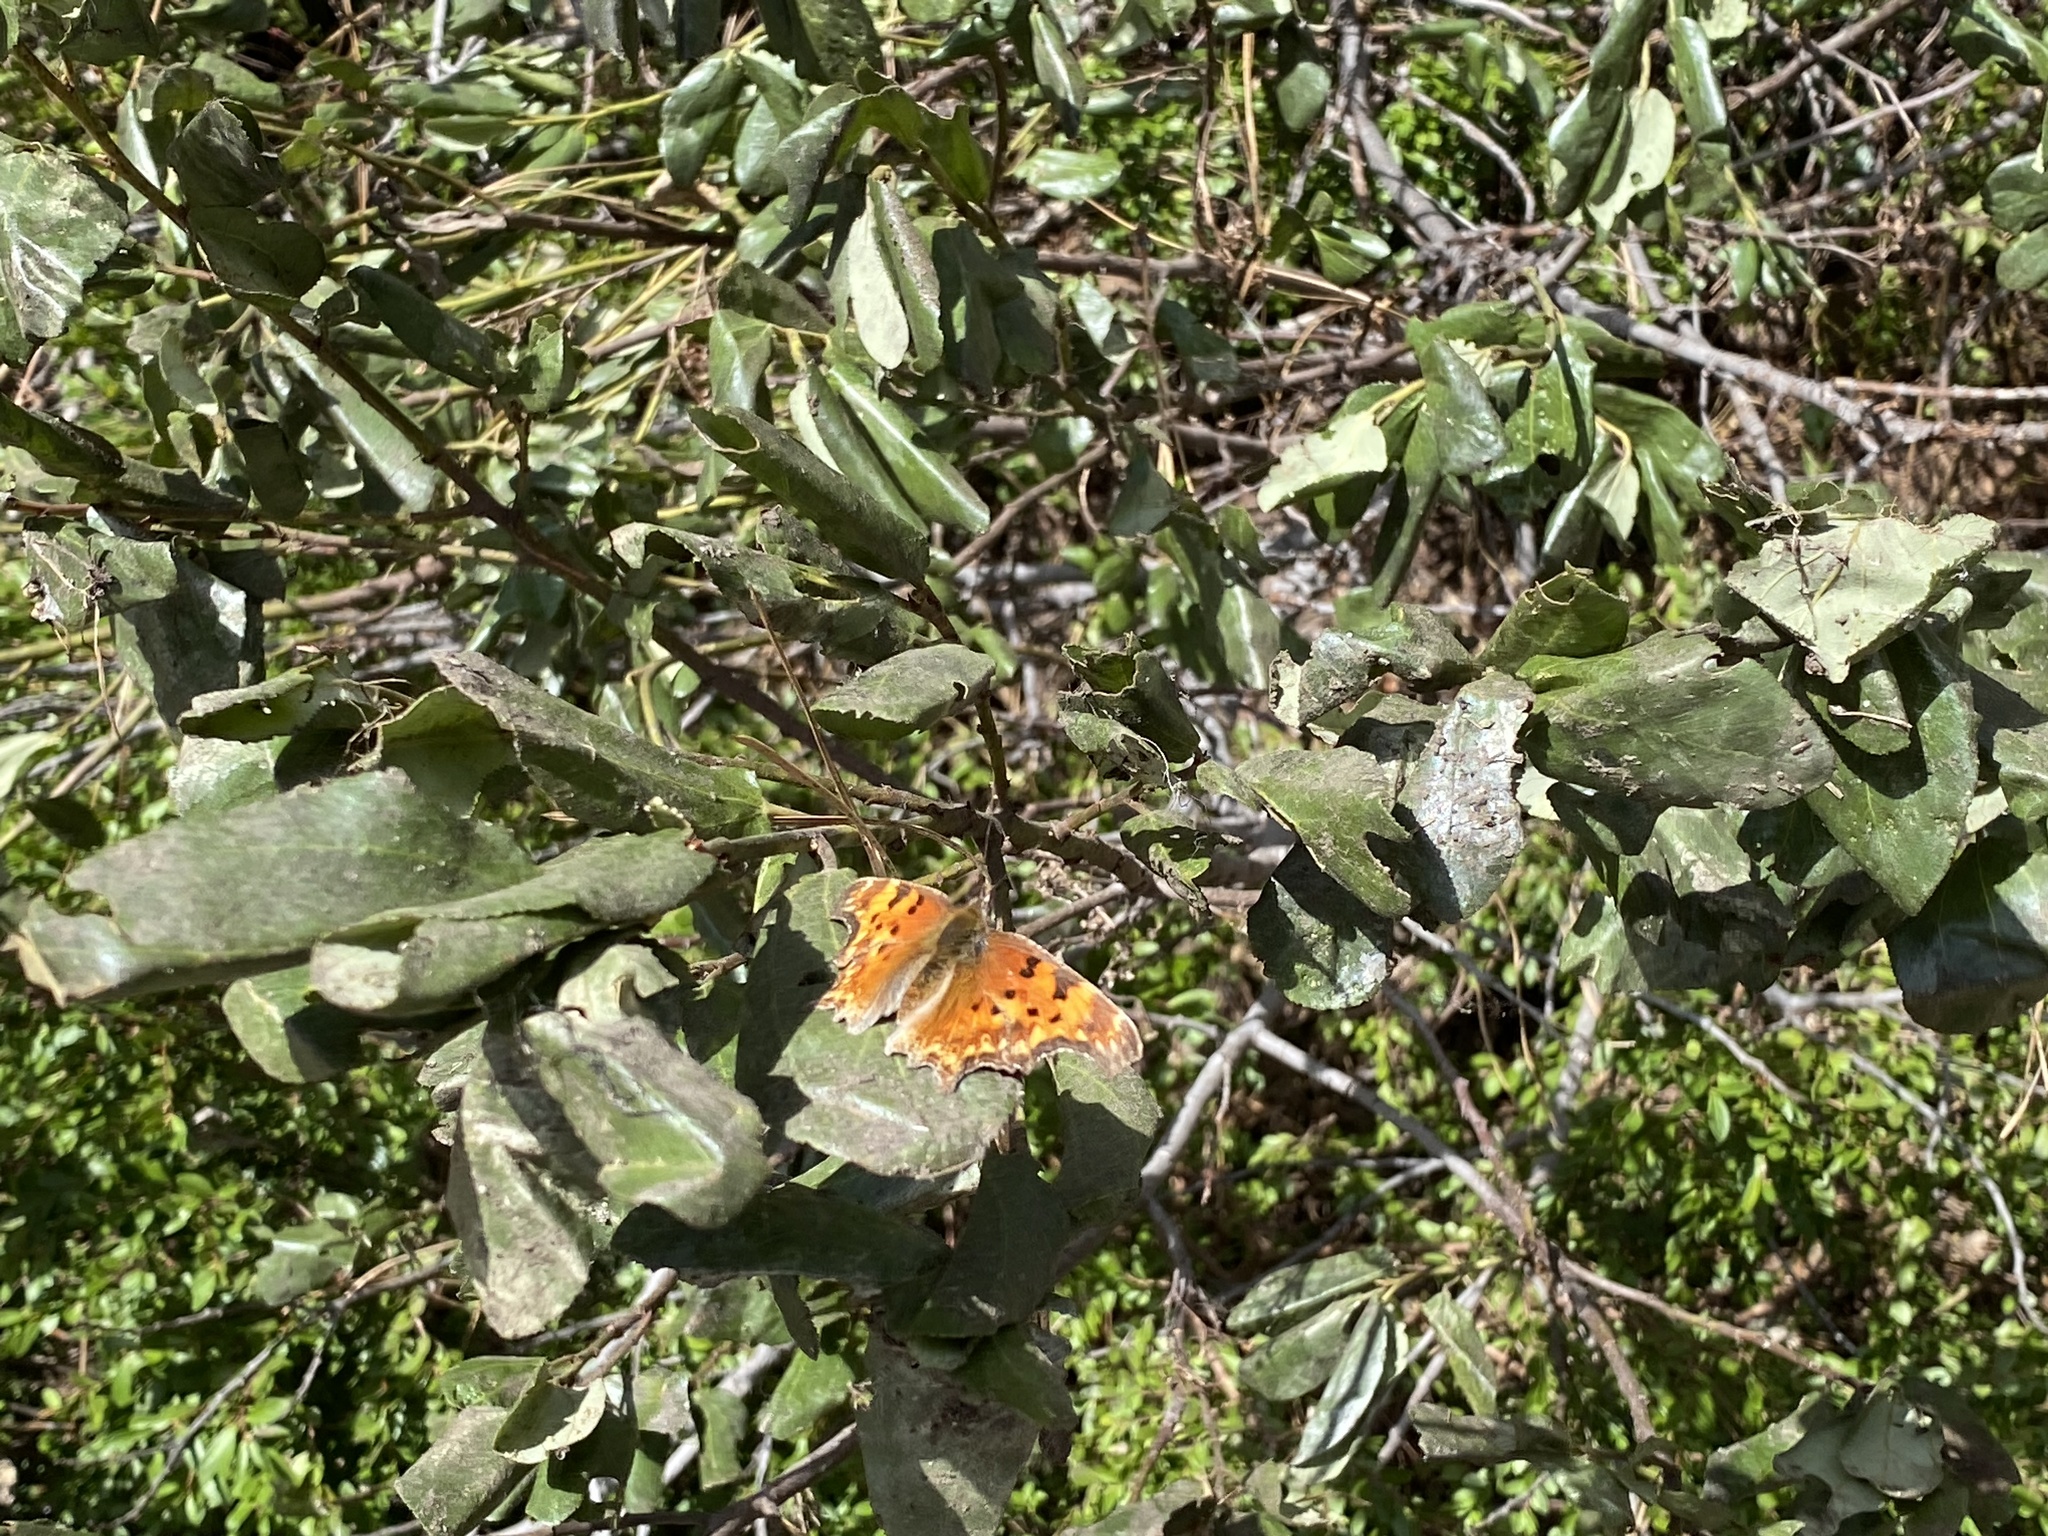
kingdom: Animalia
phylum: Arthropoda
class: Insecta
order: Lepidoptera
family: Nymphalidae
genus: Polygonia
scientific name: Polygonia gracilis
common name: Hoary comma
